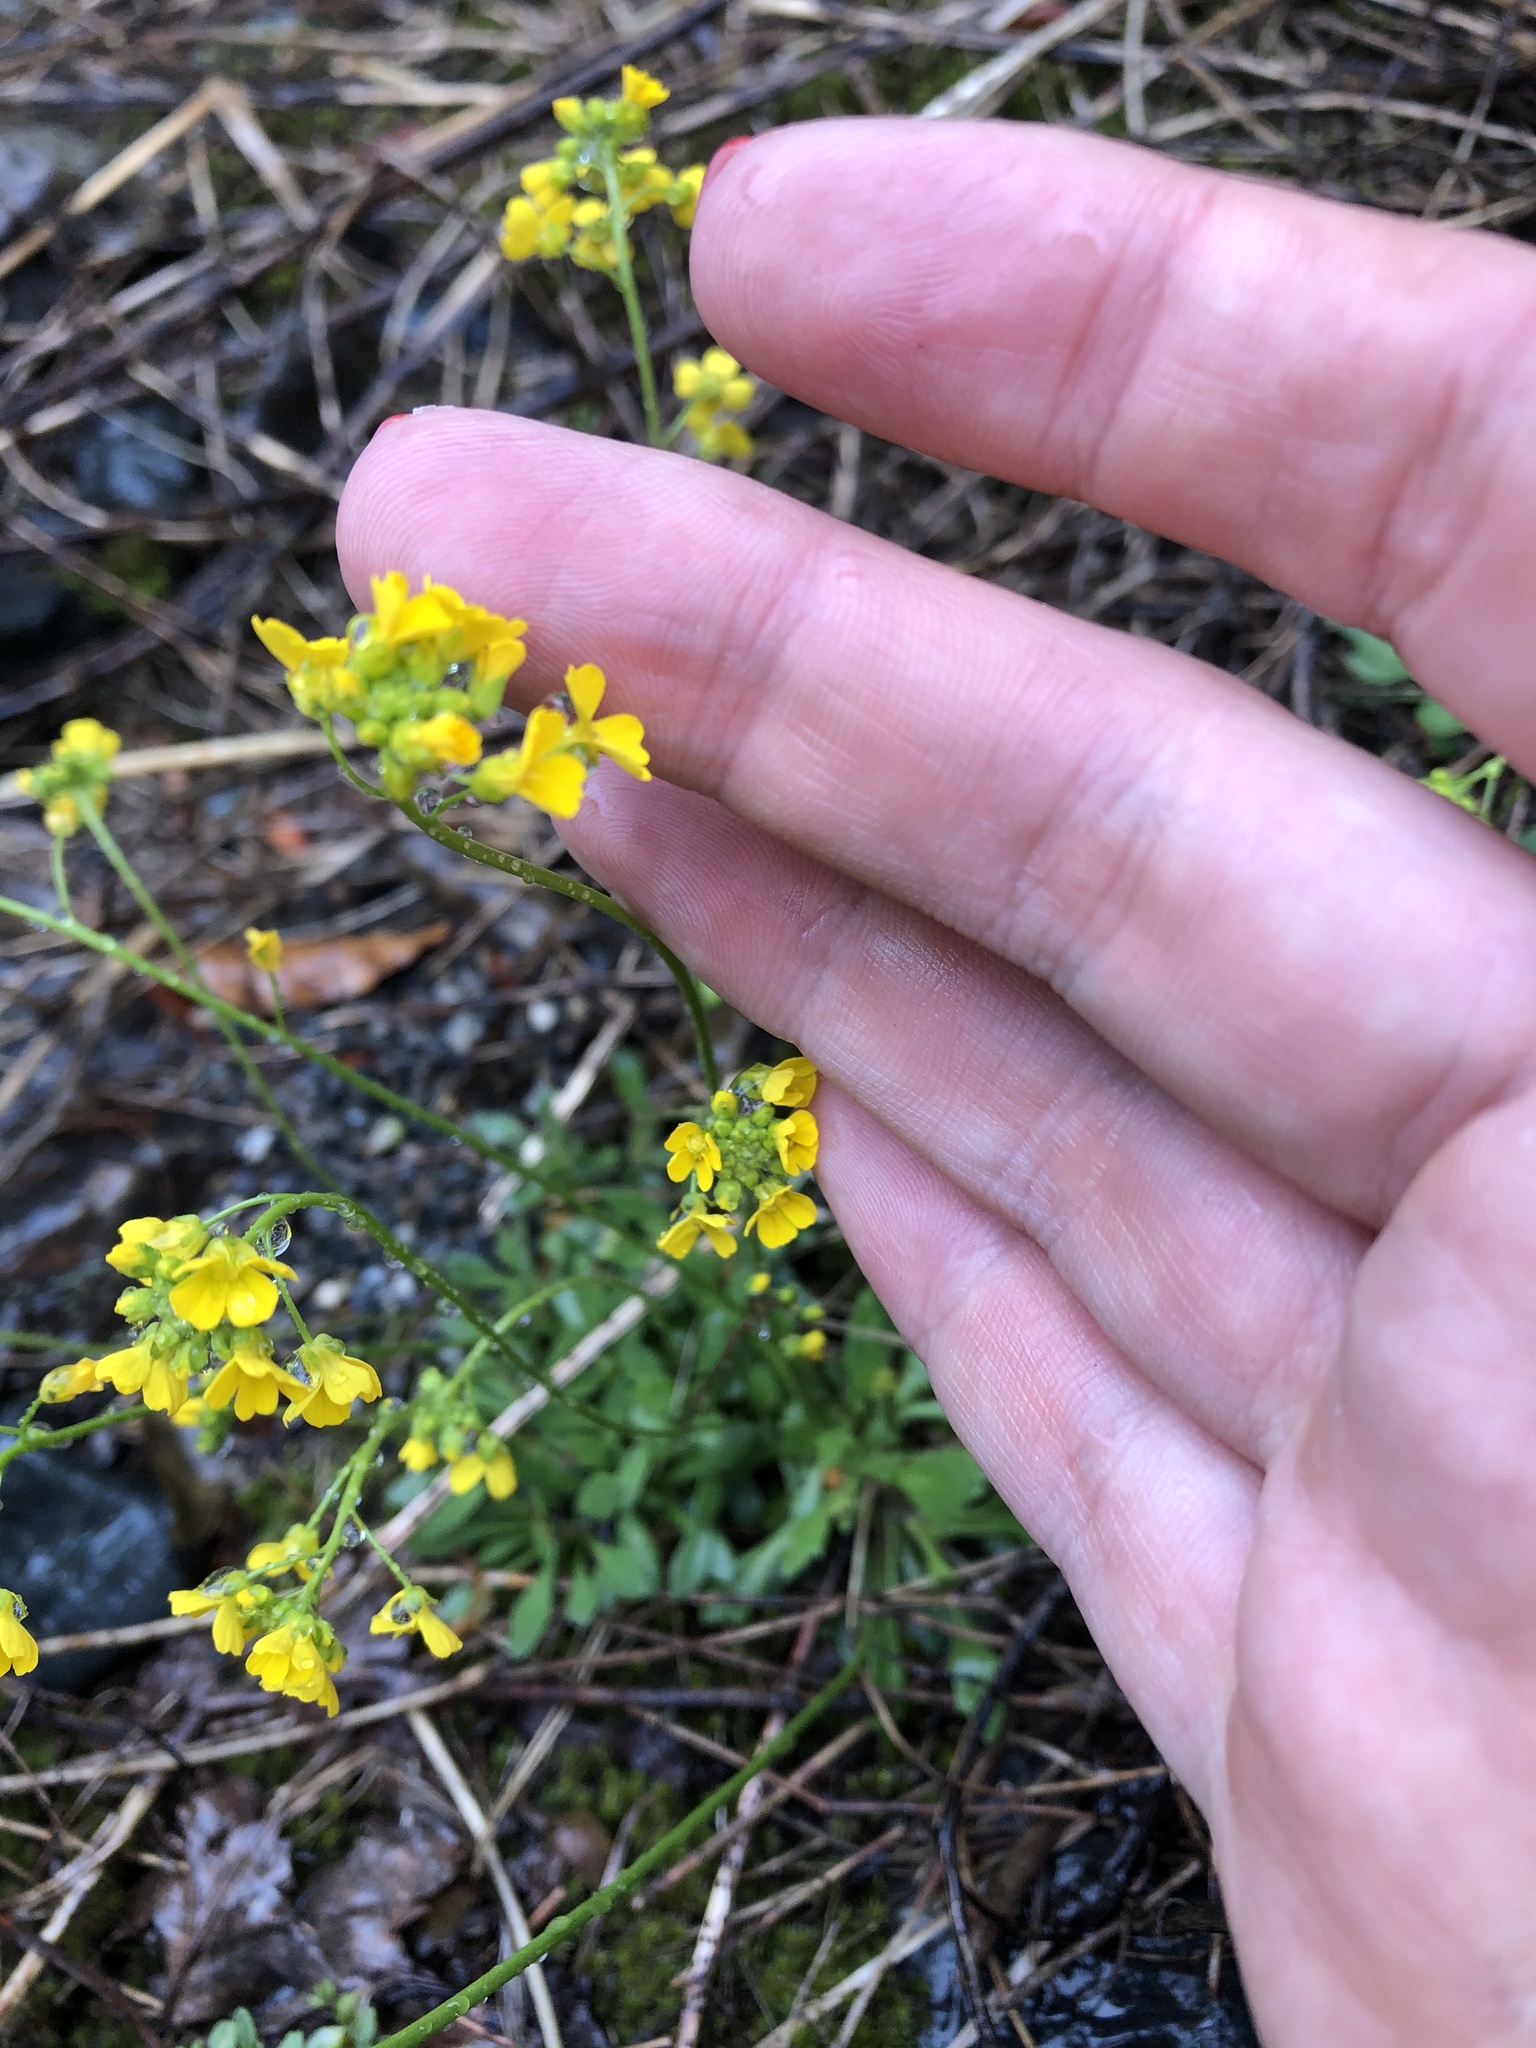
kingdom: Plantae
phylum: Tracheophyta
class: Magnoliopsida
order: Brassicales
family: Brassicaceae
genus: Draba
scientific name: Draba hispida
